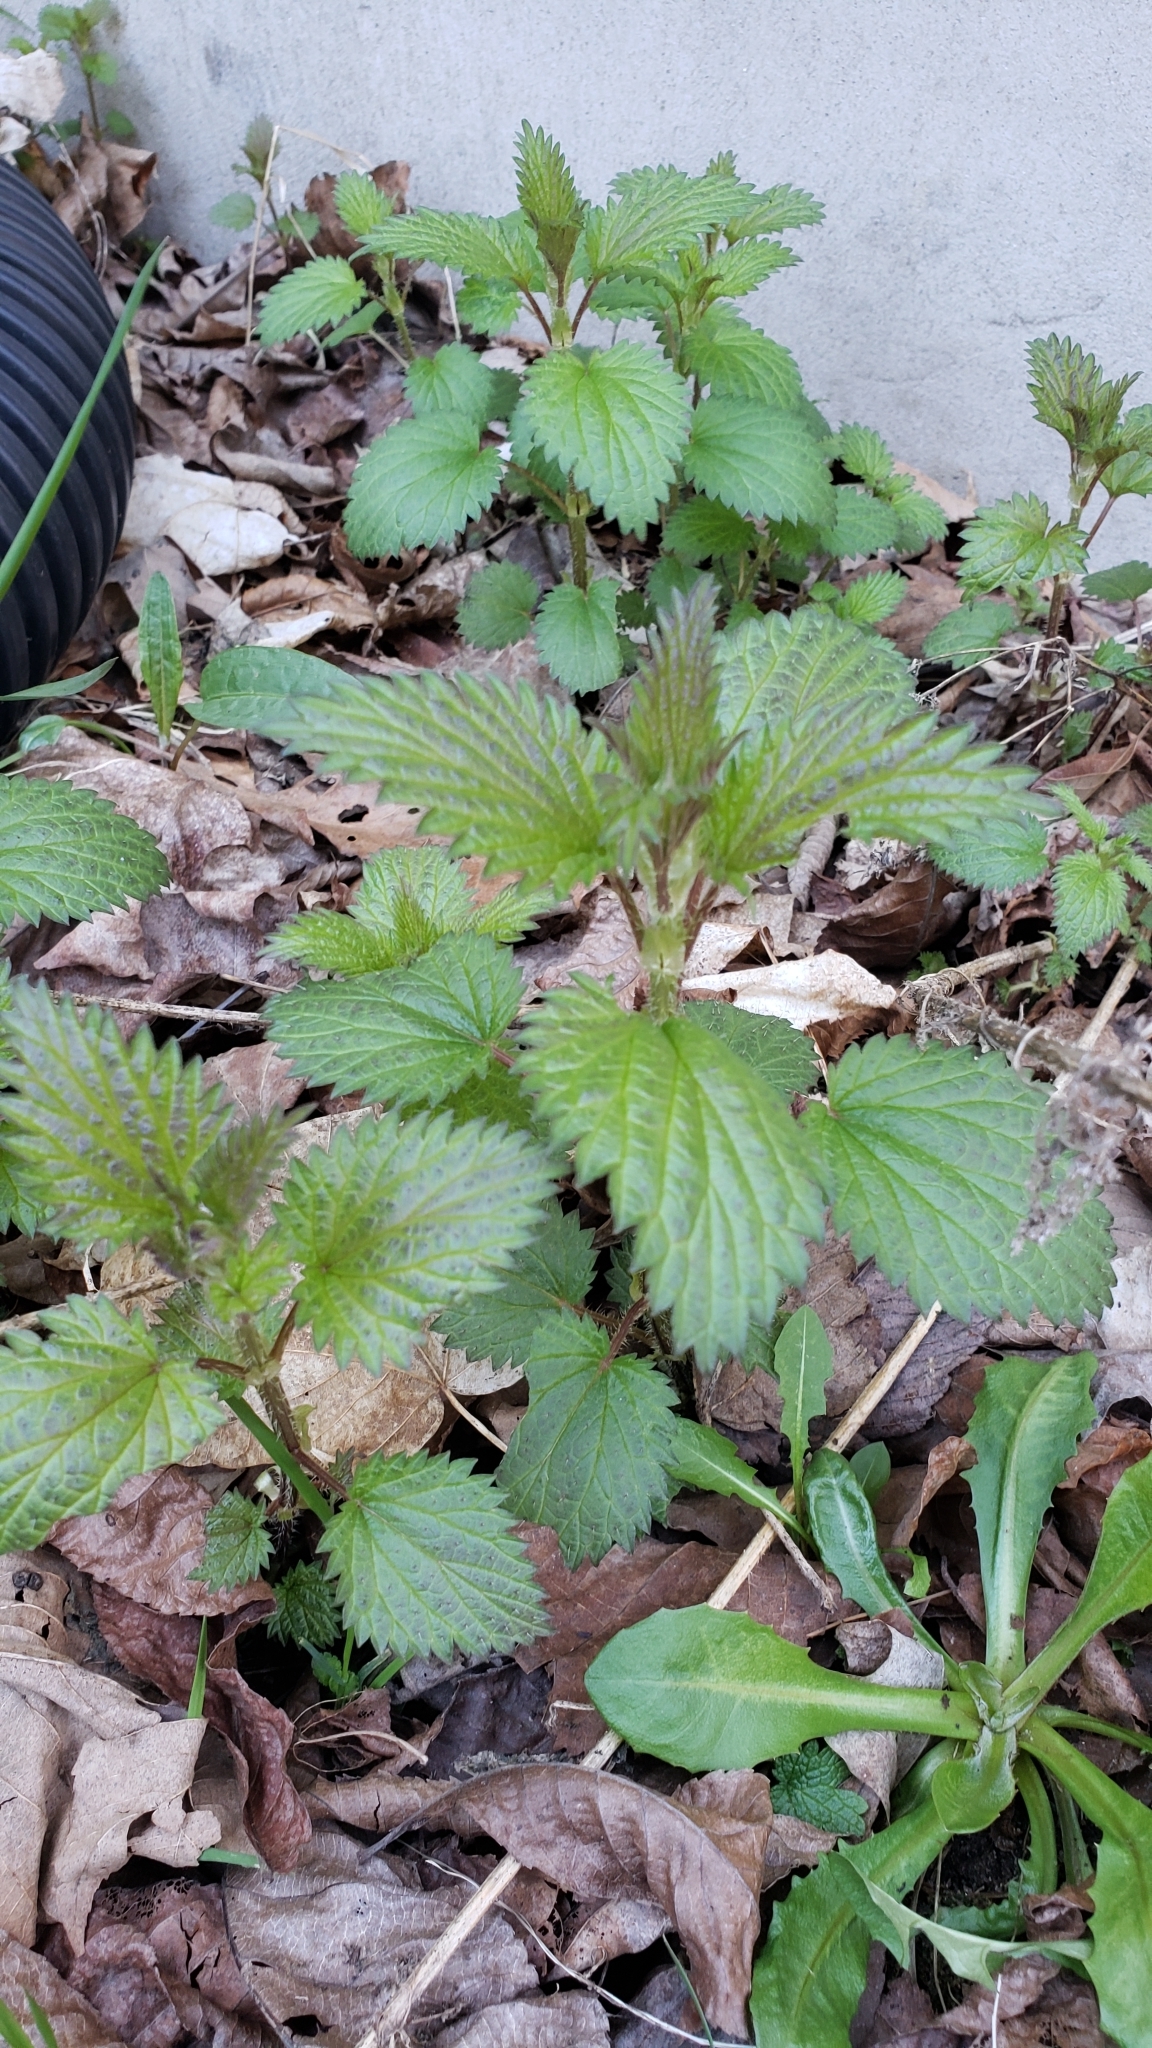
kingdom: Plantae
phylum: Tracheophyta
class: Magnoliopsida
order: Rosales
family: Urticaceae
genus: Urtica
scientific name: Urtica dioica
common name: Common nettle
